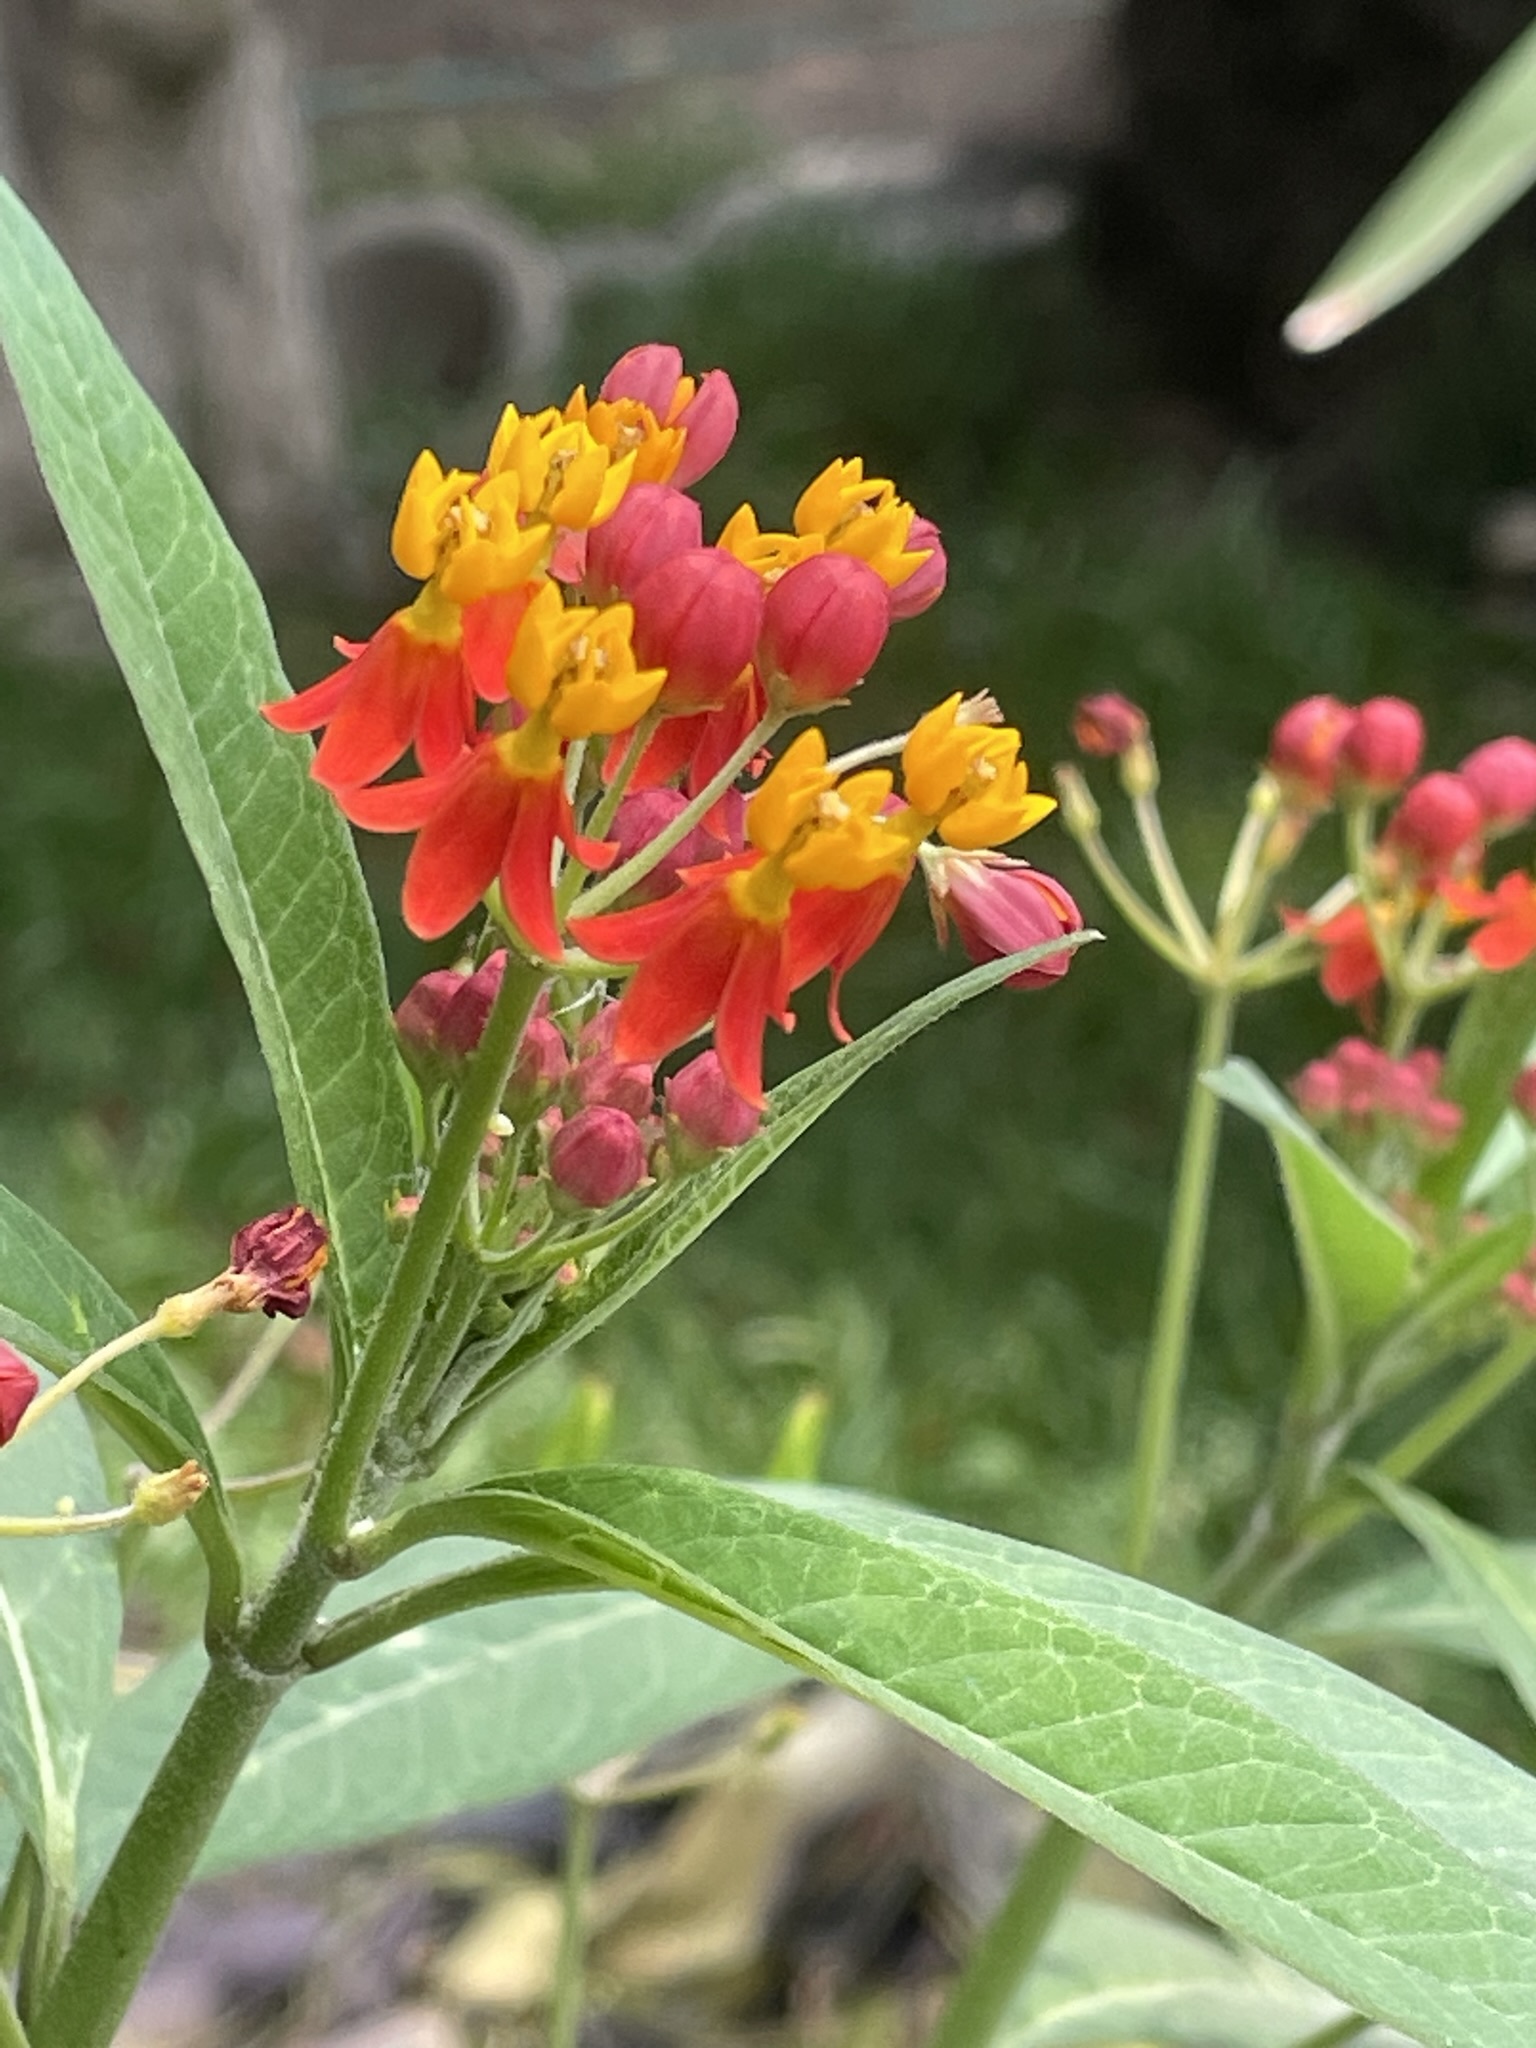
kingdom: Plantae
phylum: Tracheophyta
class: Magnoliopsida
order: Gentianales
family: Apocynaceae
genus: Asclepias
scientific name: Asclepias curassavica
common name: Bloodflower
